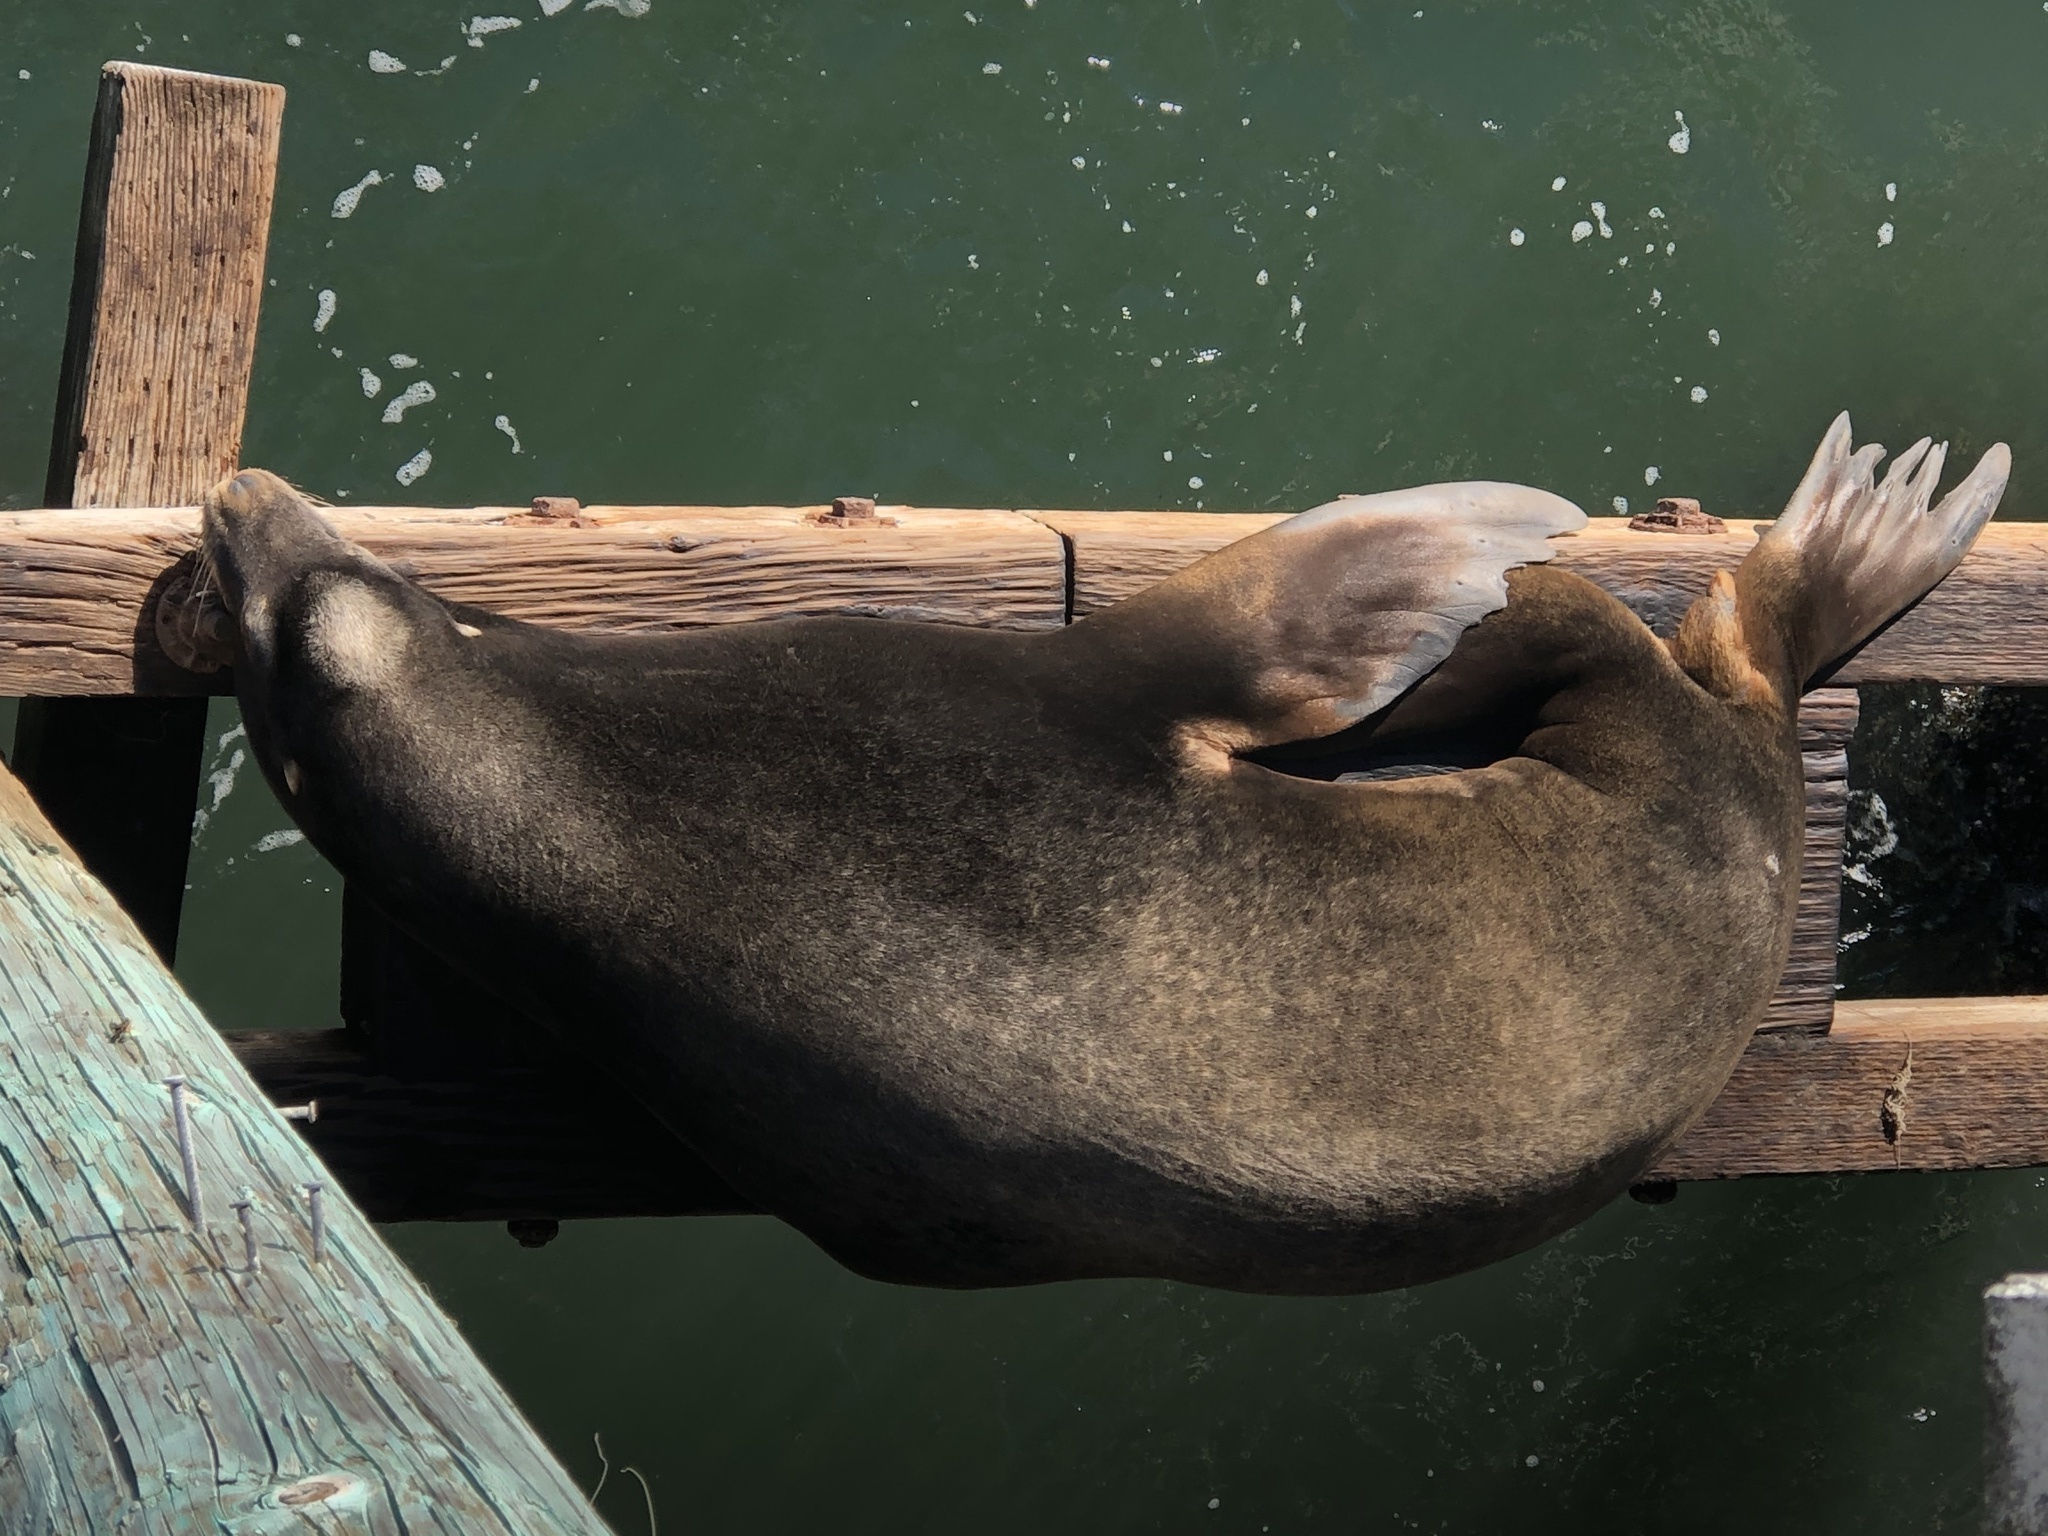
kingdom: Animalia
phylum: Chordata
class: Mammalia
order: Carnivora
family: Otariidae
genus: Zalophus
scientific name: Zalophus californianus
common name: California sea lion
